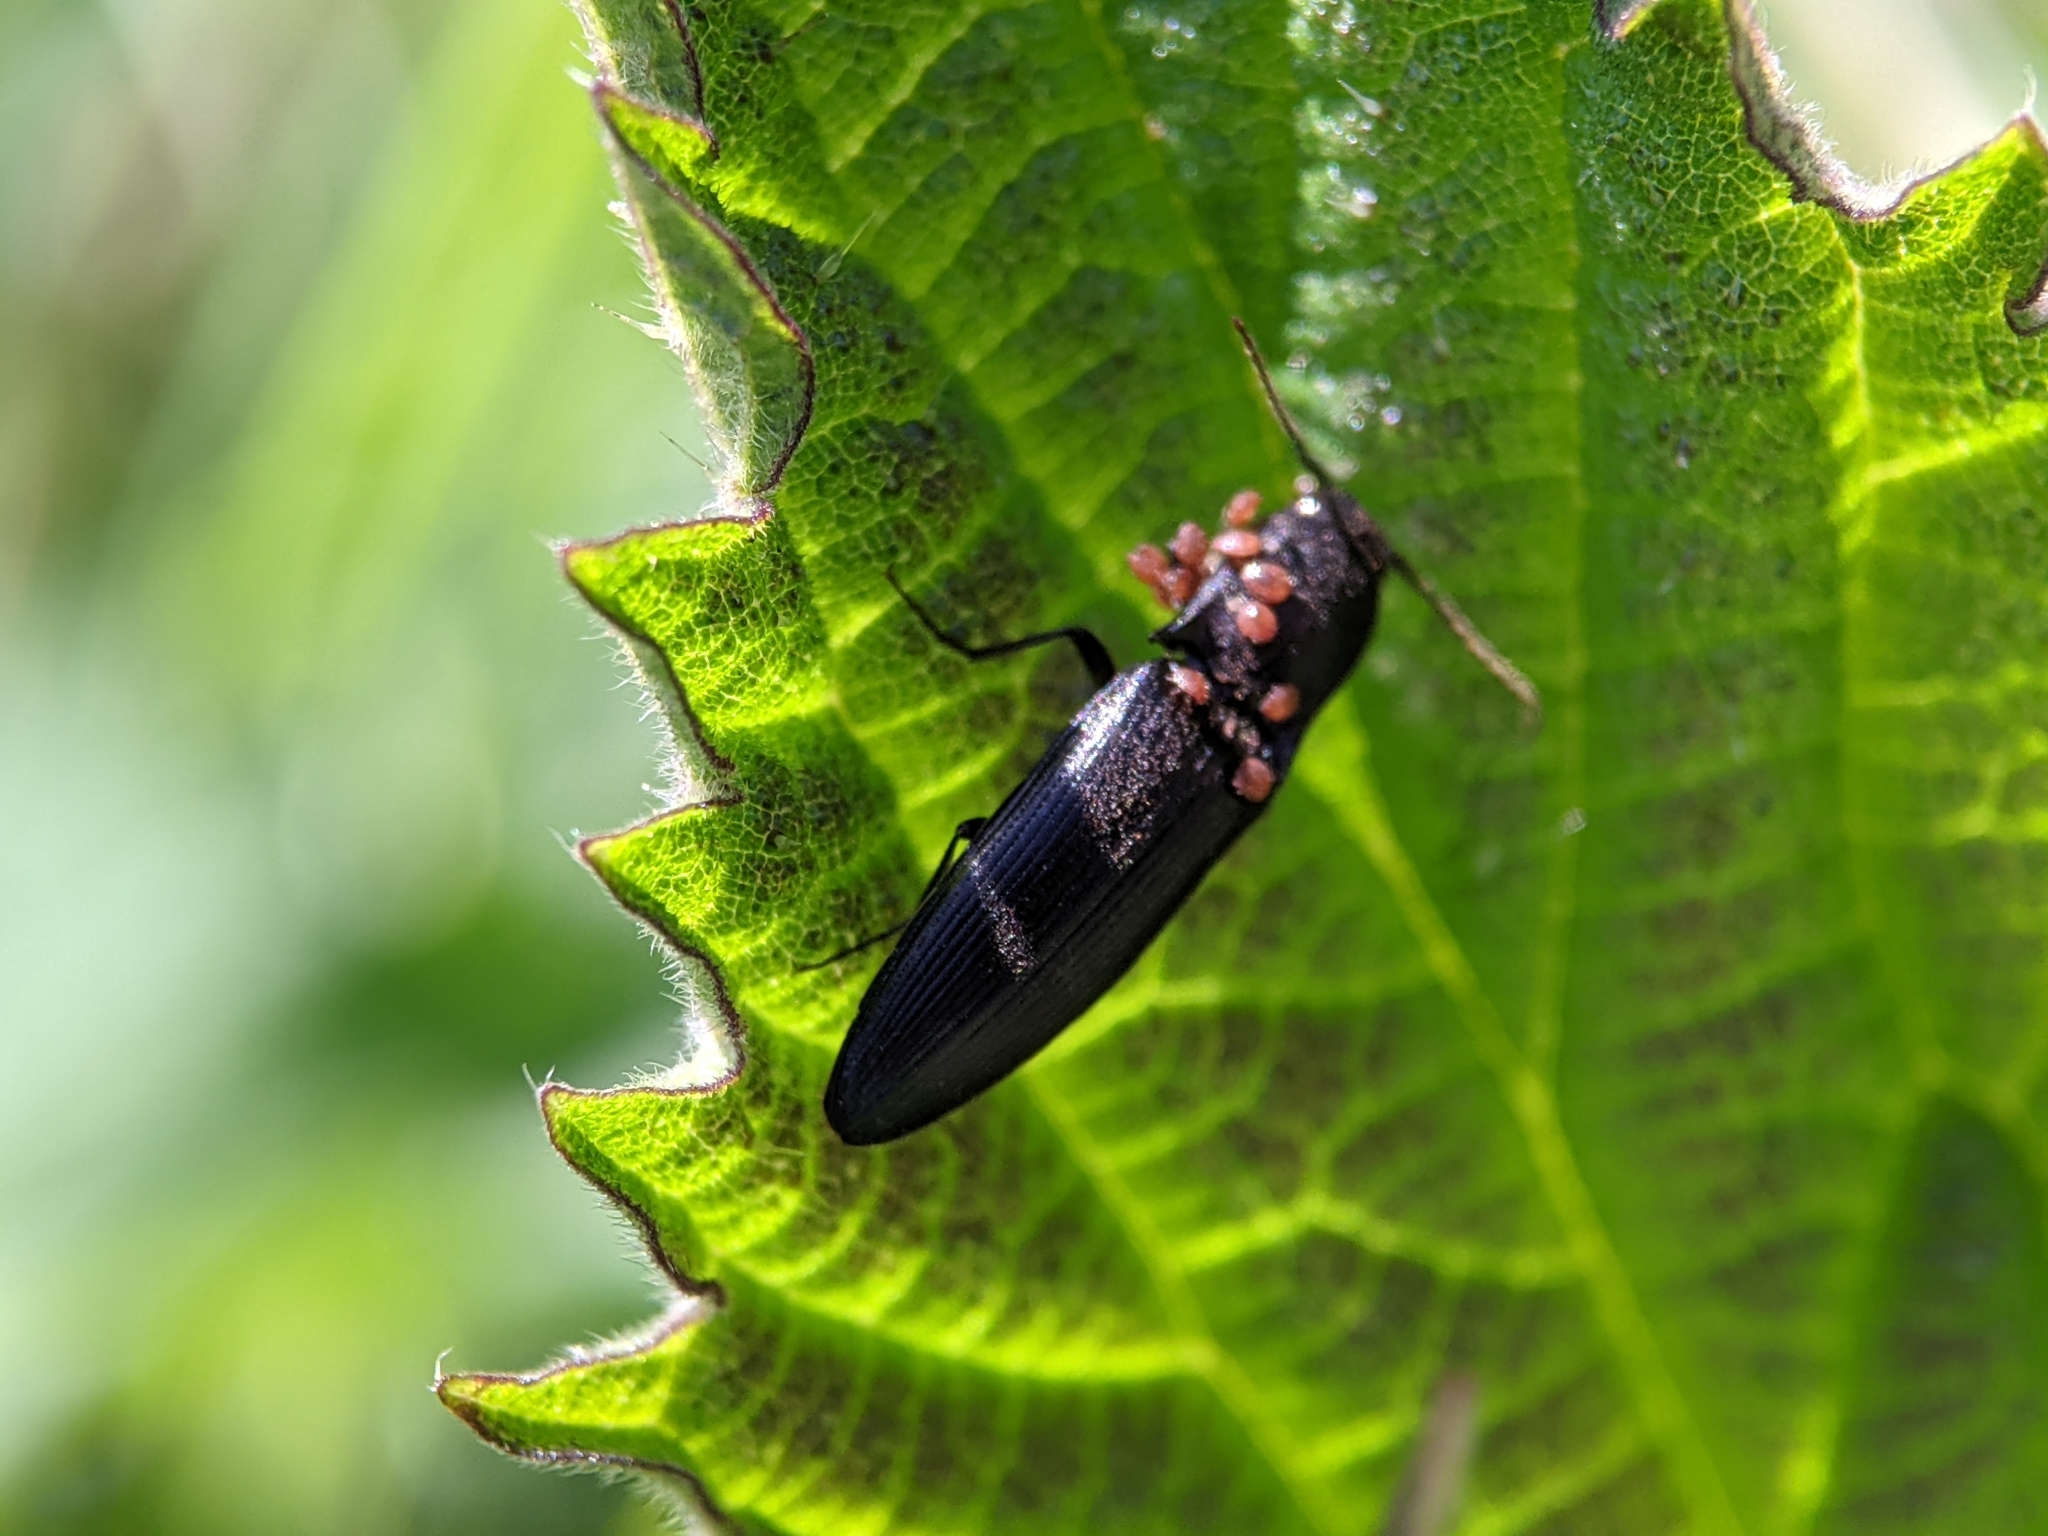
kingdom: Animalia
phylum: Arthropoda
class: Insecta
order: Coleoptera
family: Elateridae
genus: Ectinus
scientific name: Ectinus aterrimus
